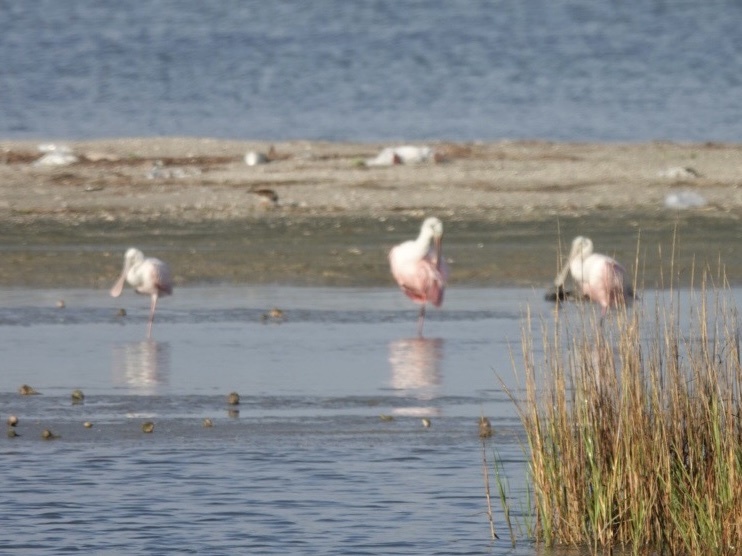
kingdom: Animalia
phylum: Chordata
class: Aves
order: Pelecaniformes
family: Threskiornithidae
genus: Platalea
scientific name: Platalea ajaja
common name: Roseate spoonbill
